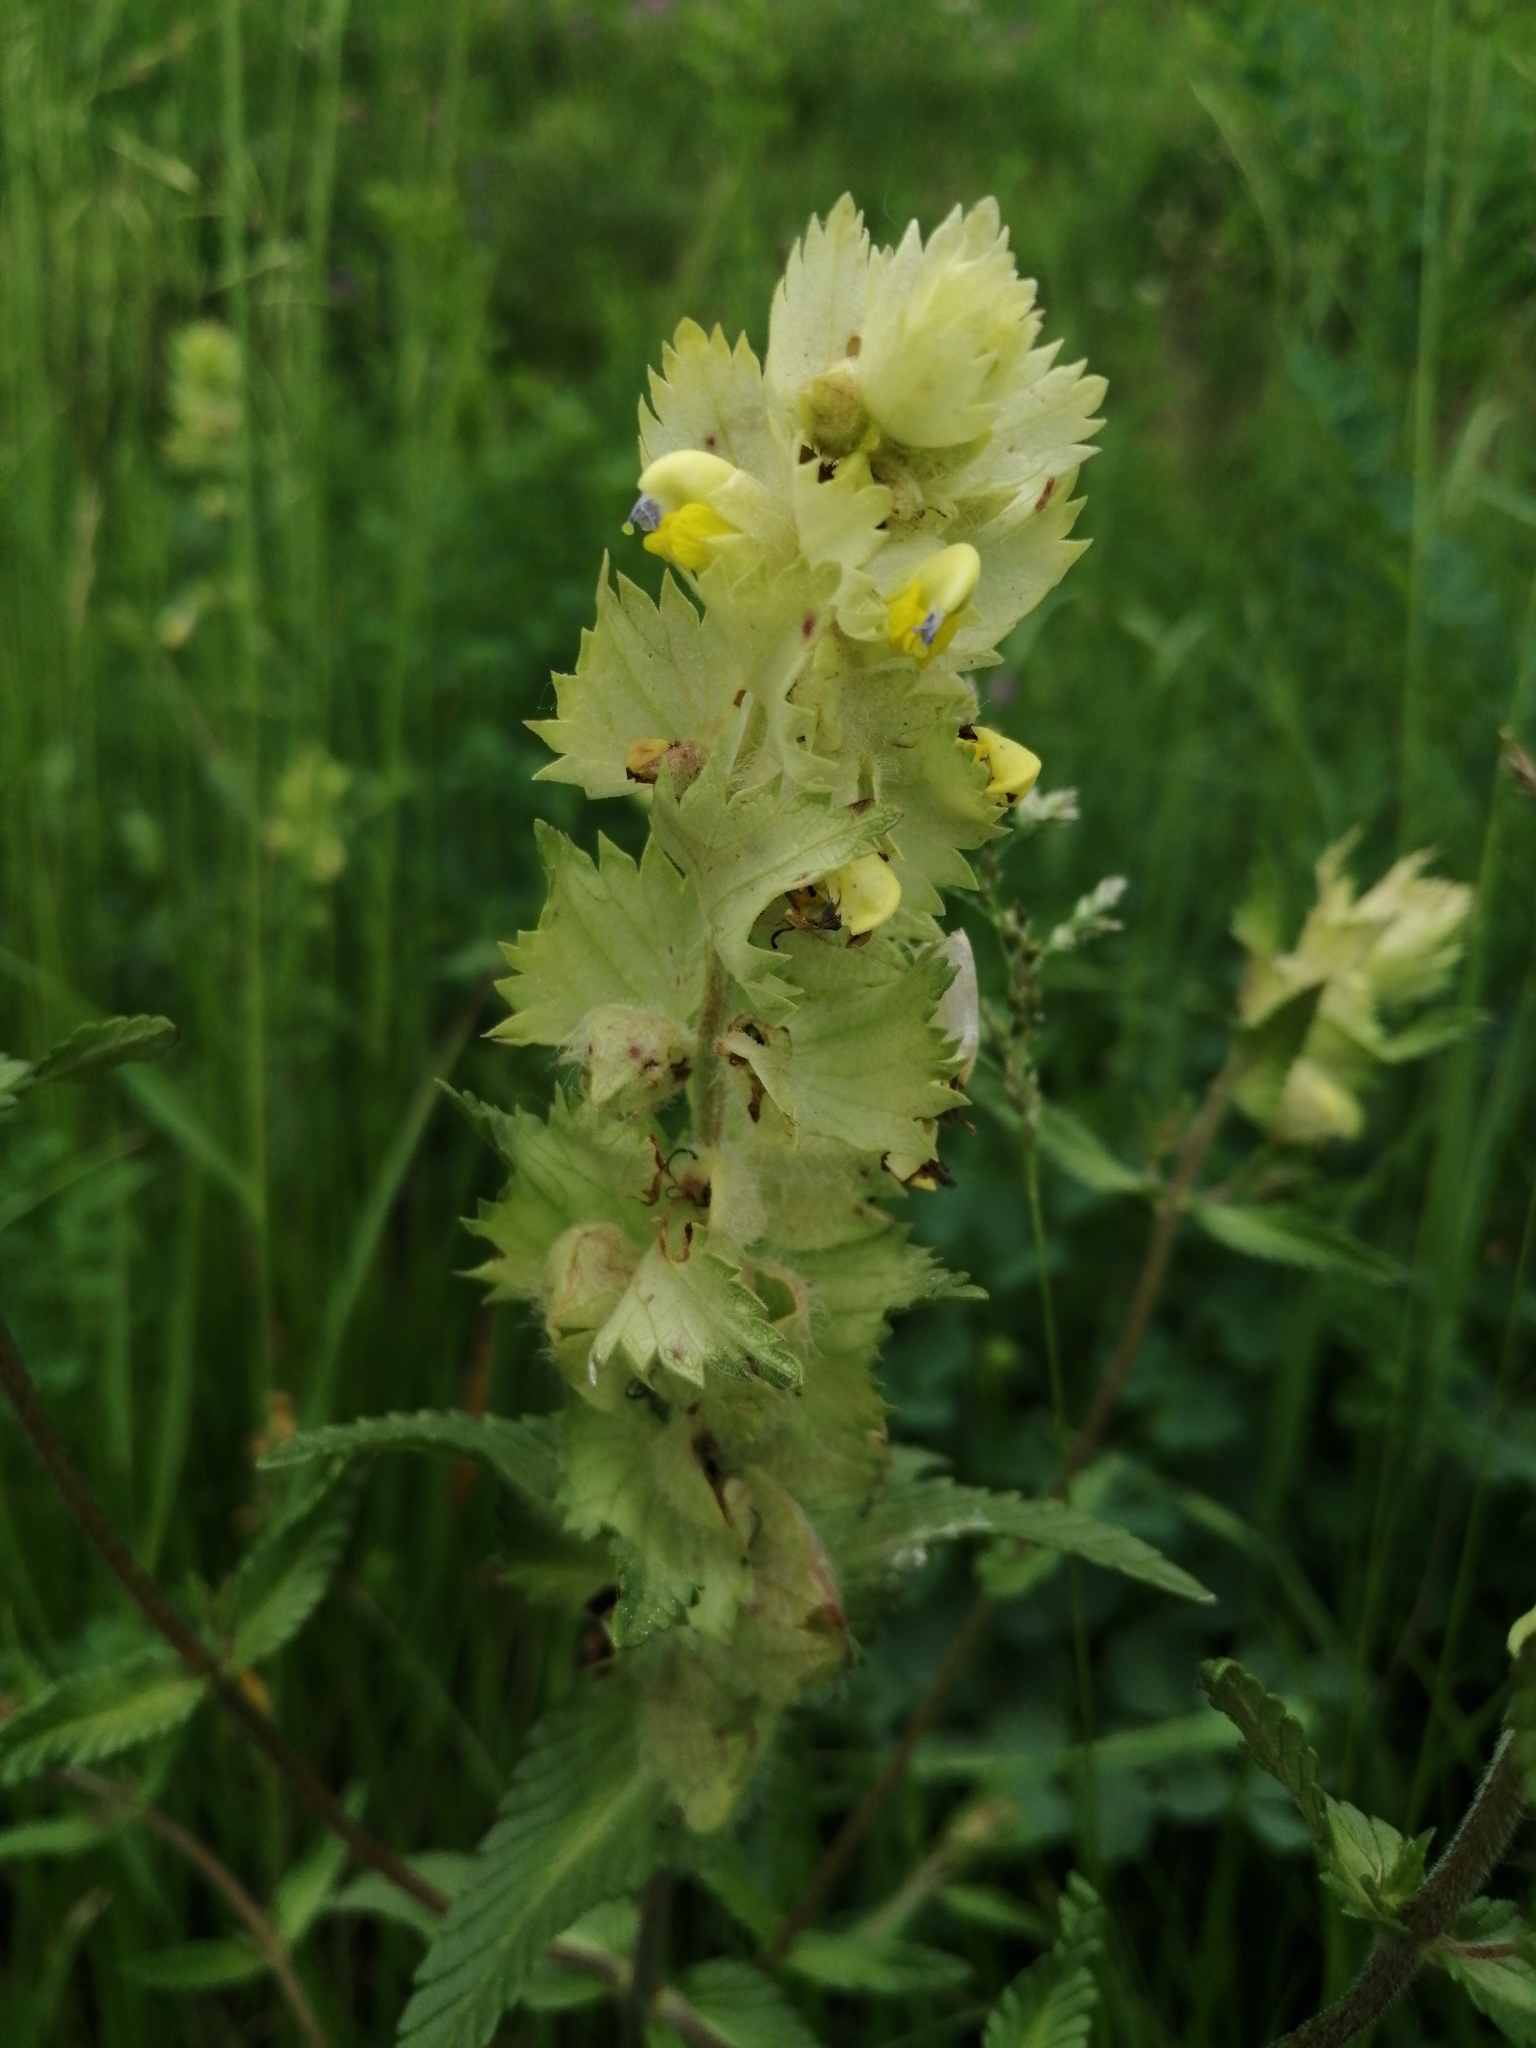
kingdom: Plantae
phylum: Tracheophyta
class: Magnoliopsida
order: Lamiales
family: Orobanchaceae
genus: Rhinanthus
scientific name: Rhinanthus alectorolophus
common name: Greater yellow-rattle
